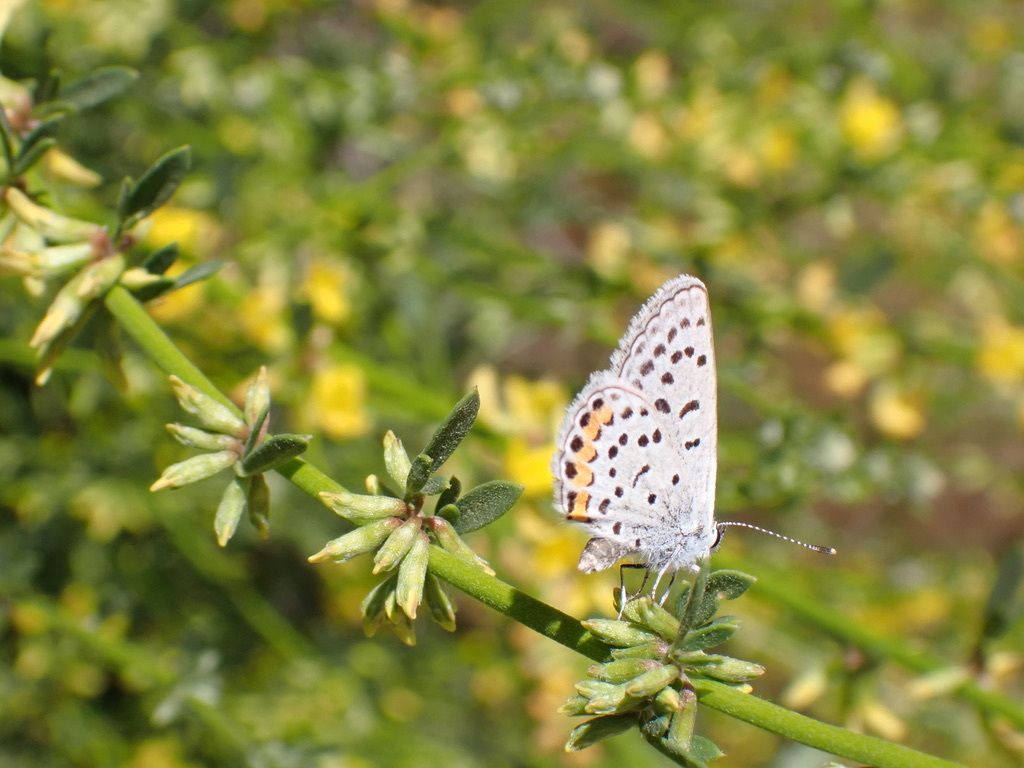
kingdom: Animalia
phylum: Arthropoda
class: Insecta
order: Lepidoptera
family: Lycaenidae
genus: Icaricia
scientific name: Icaricia acmon
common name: Acmon blue
